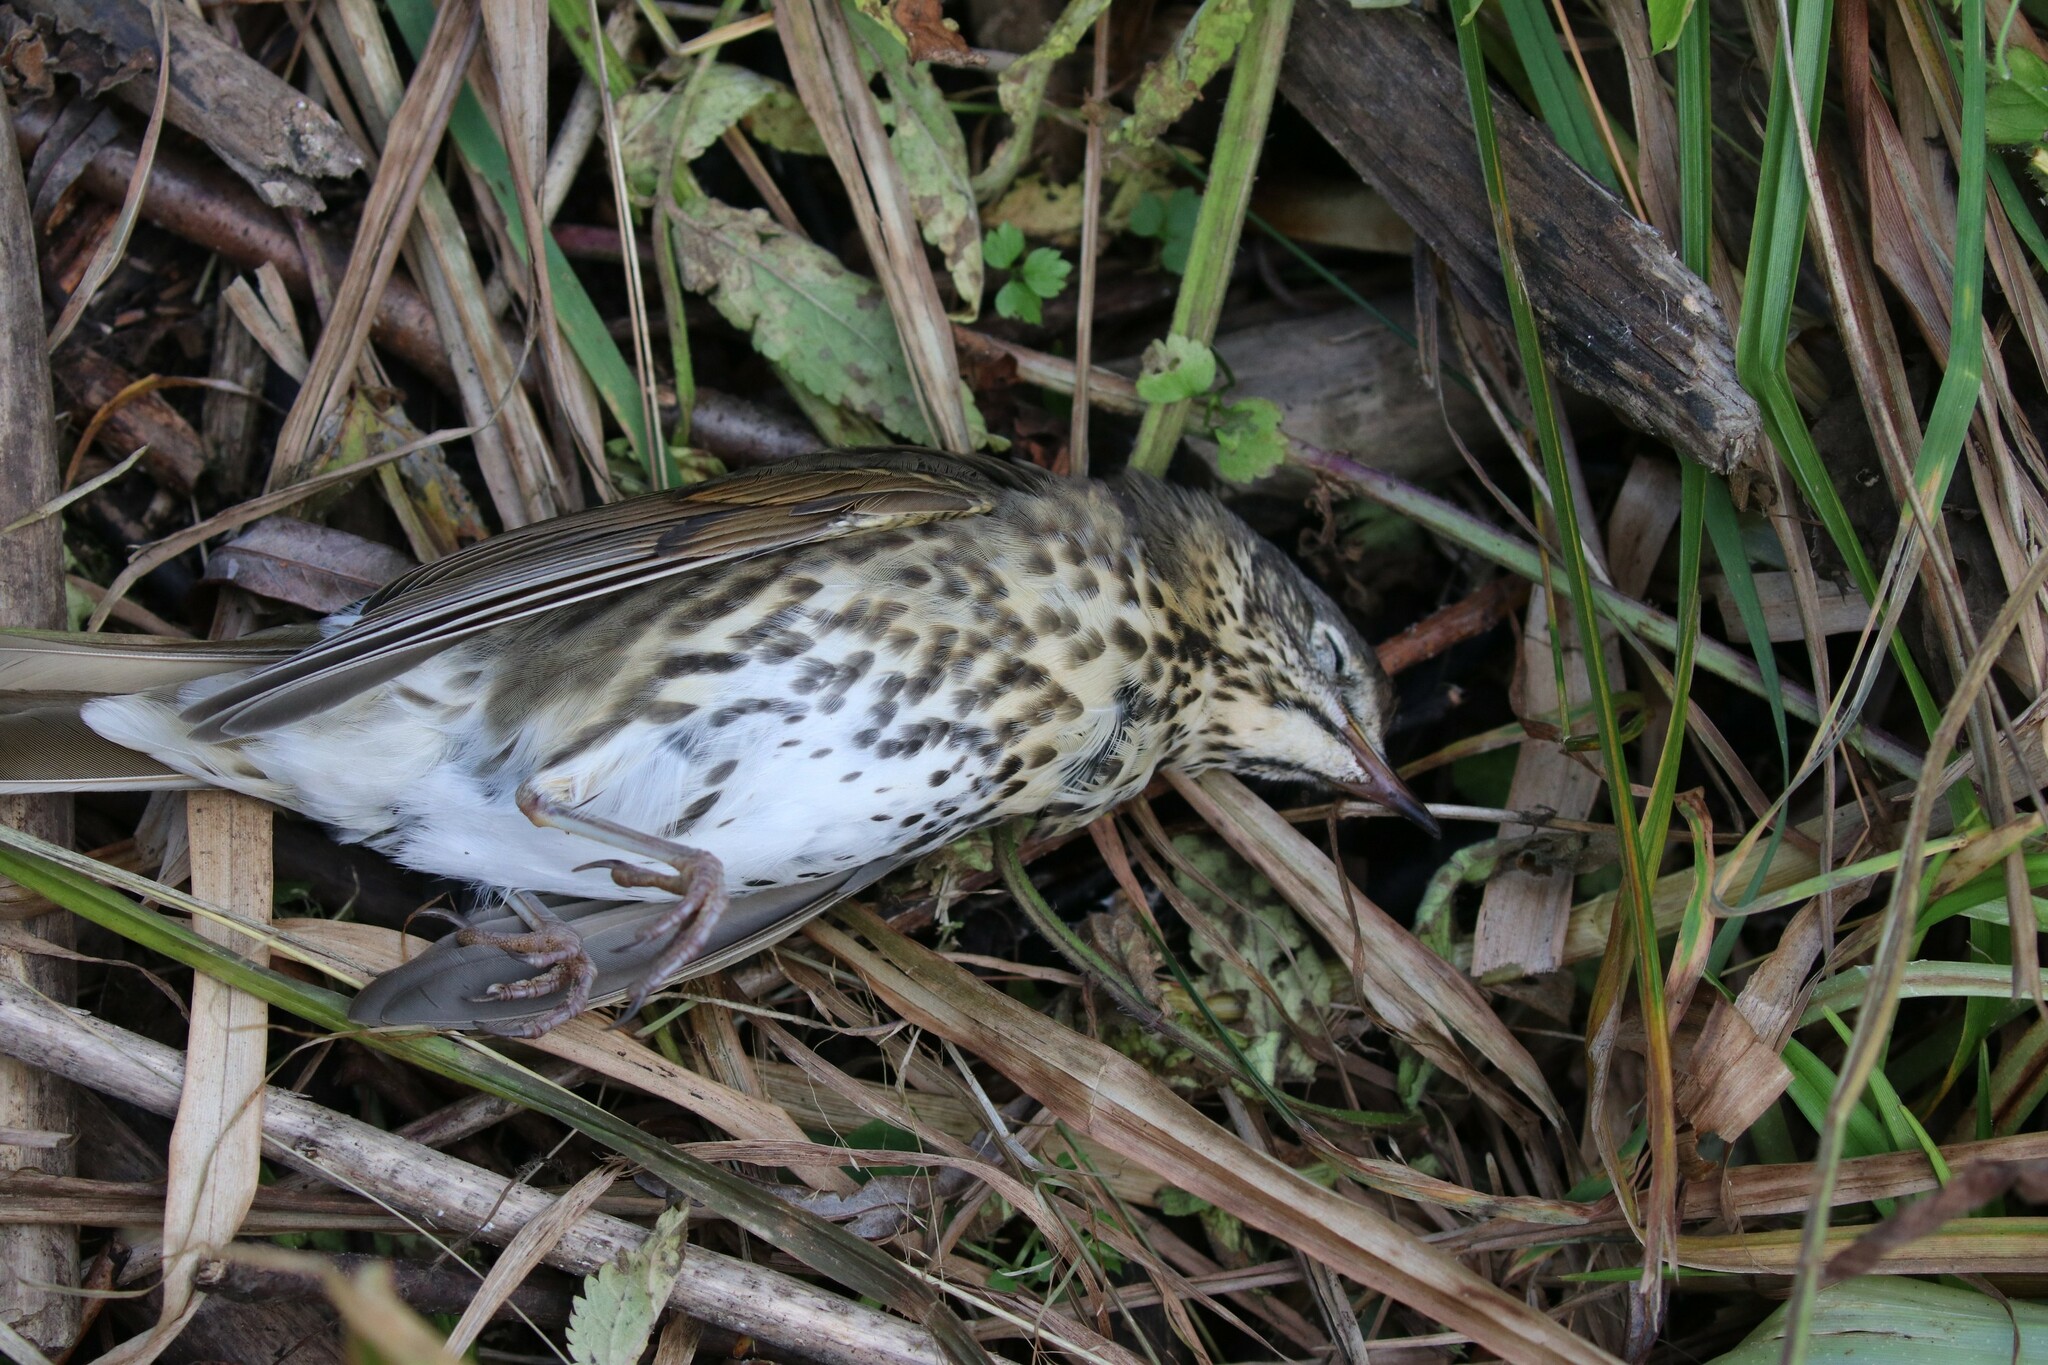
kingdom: Animalia
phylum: Chordata
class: Aves
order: Passeriformes
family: Turdidae
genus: Turdus
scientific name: Turdus philomelos
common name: Song thrush
